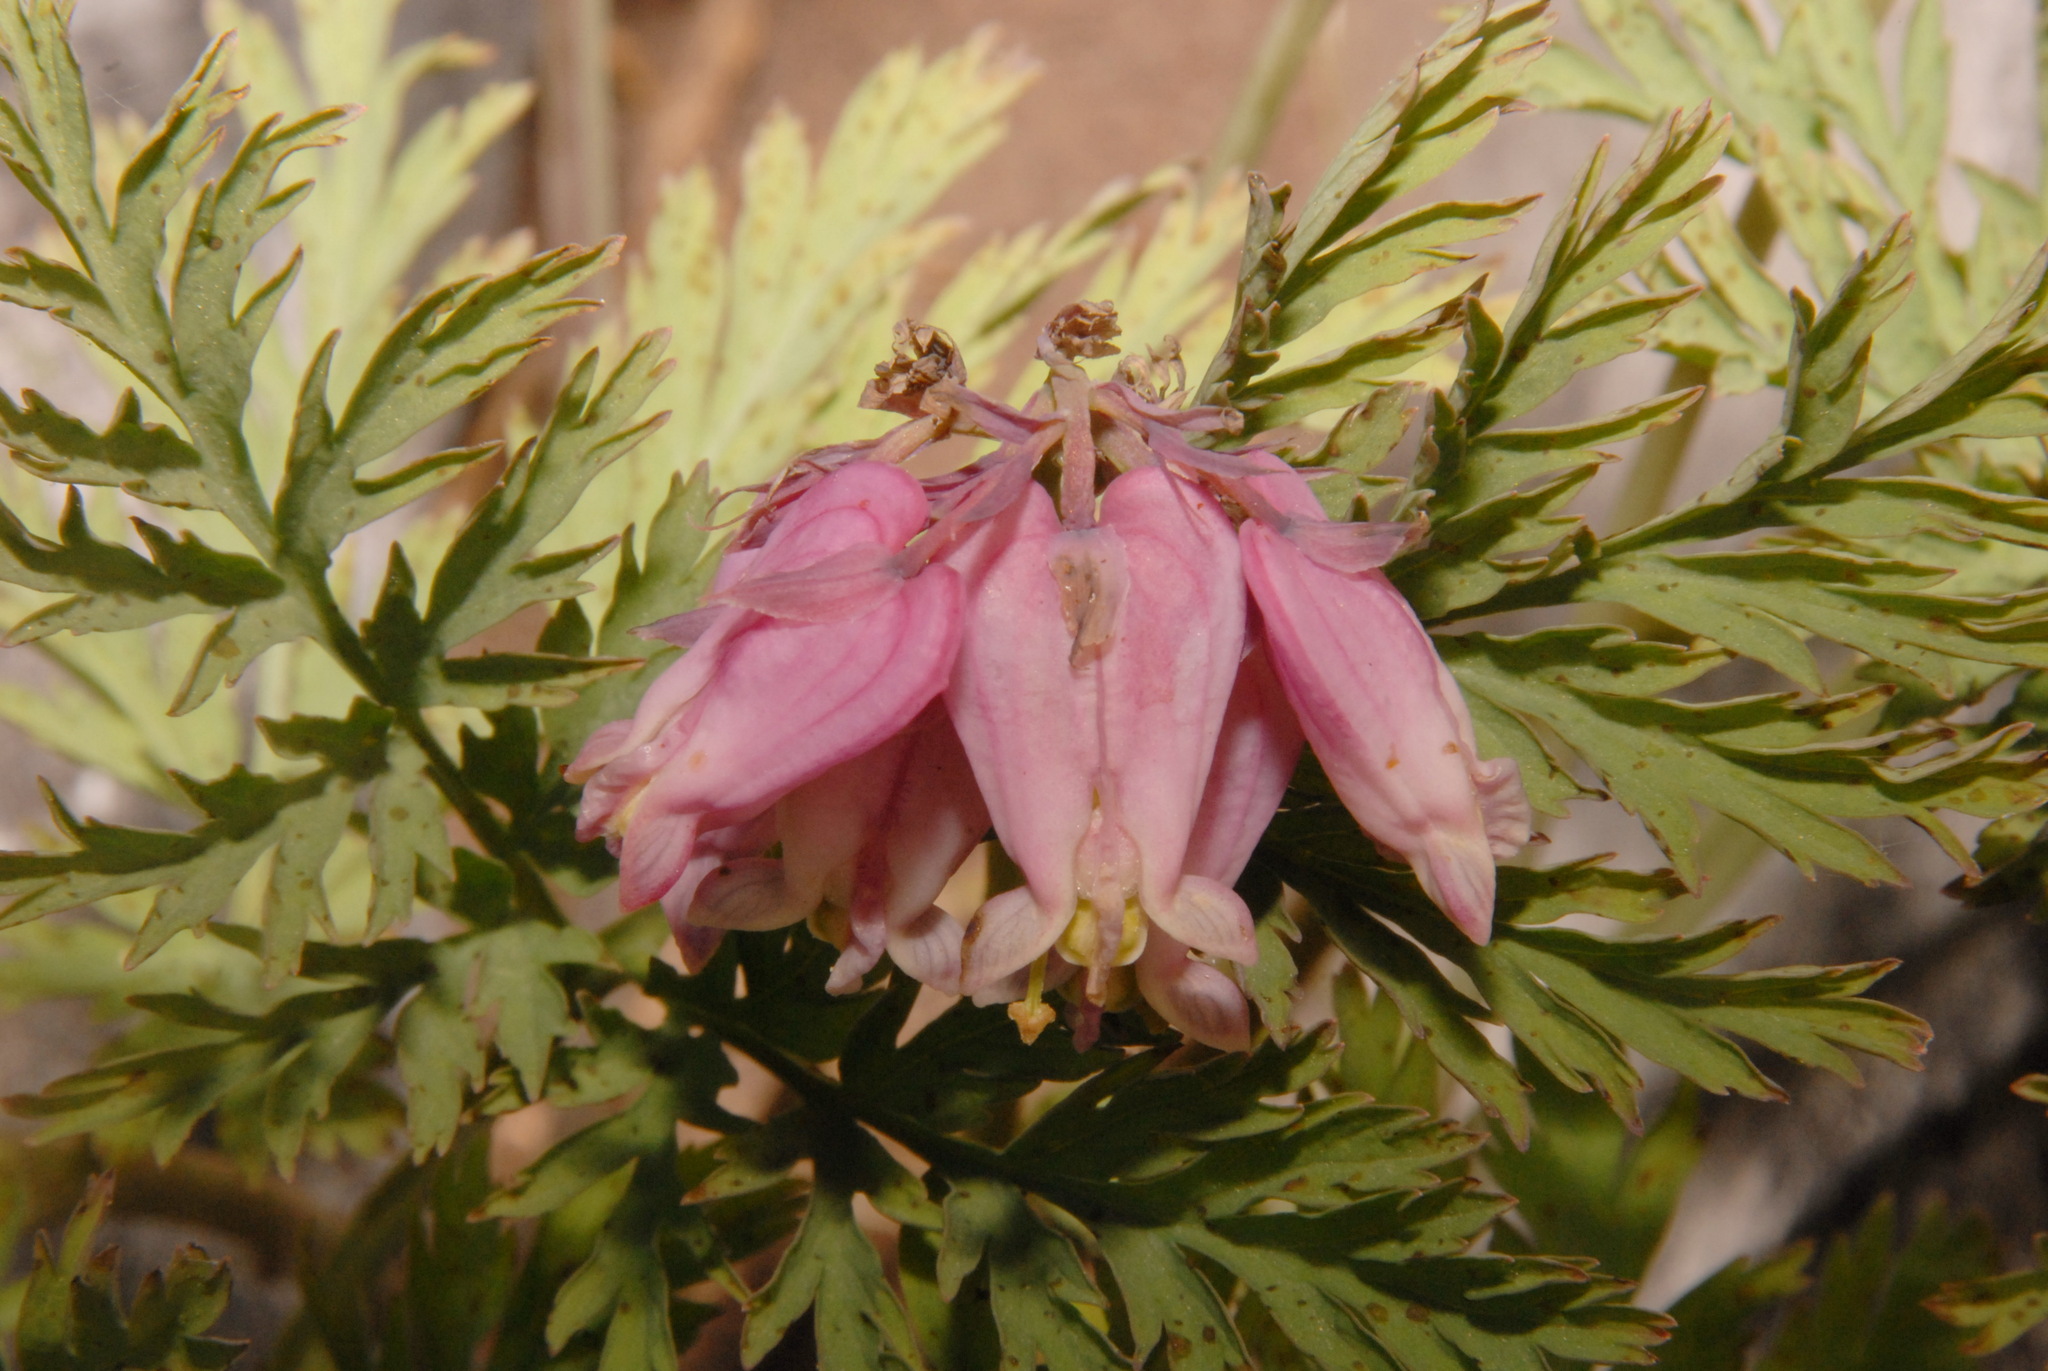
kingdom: Plantae
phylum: Tracheophyta
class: Magnoliopsida
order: Ranunculales
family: Papaveraceae
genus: Dicentra
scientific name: Dicentra formosa
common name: Bleeding-heart
